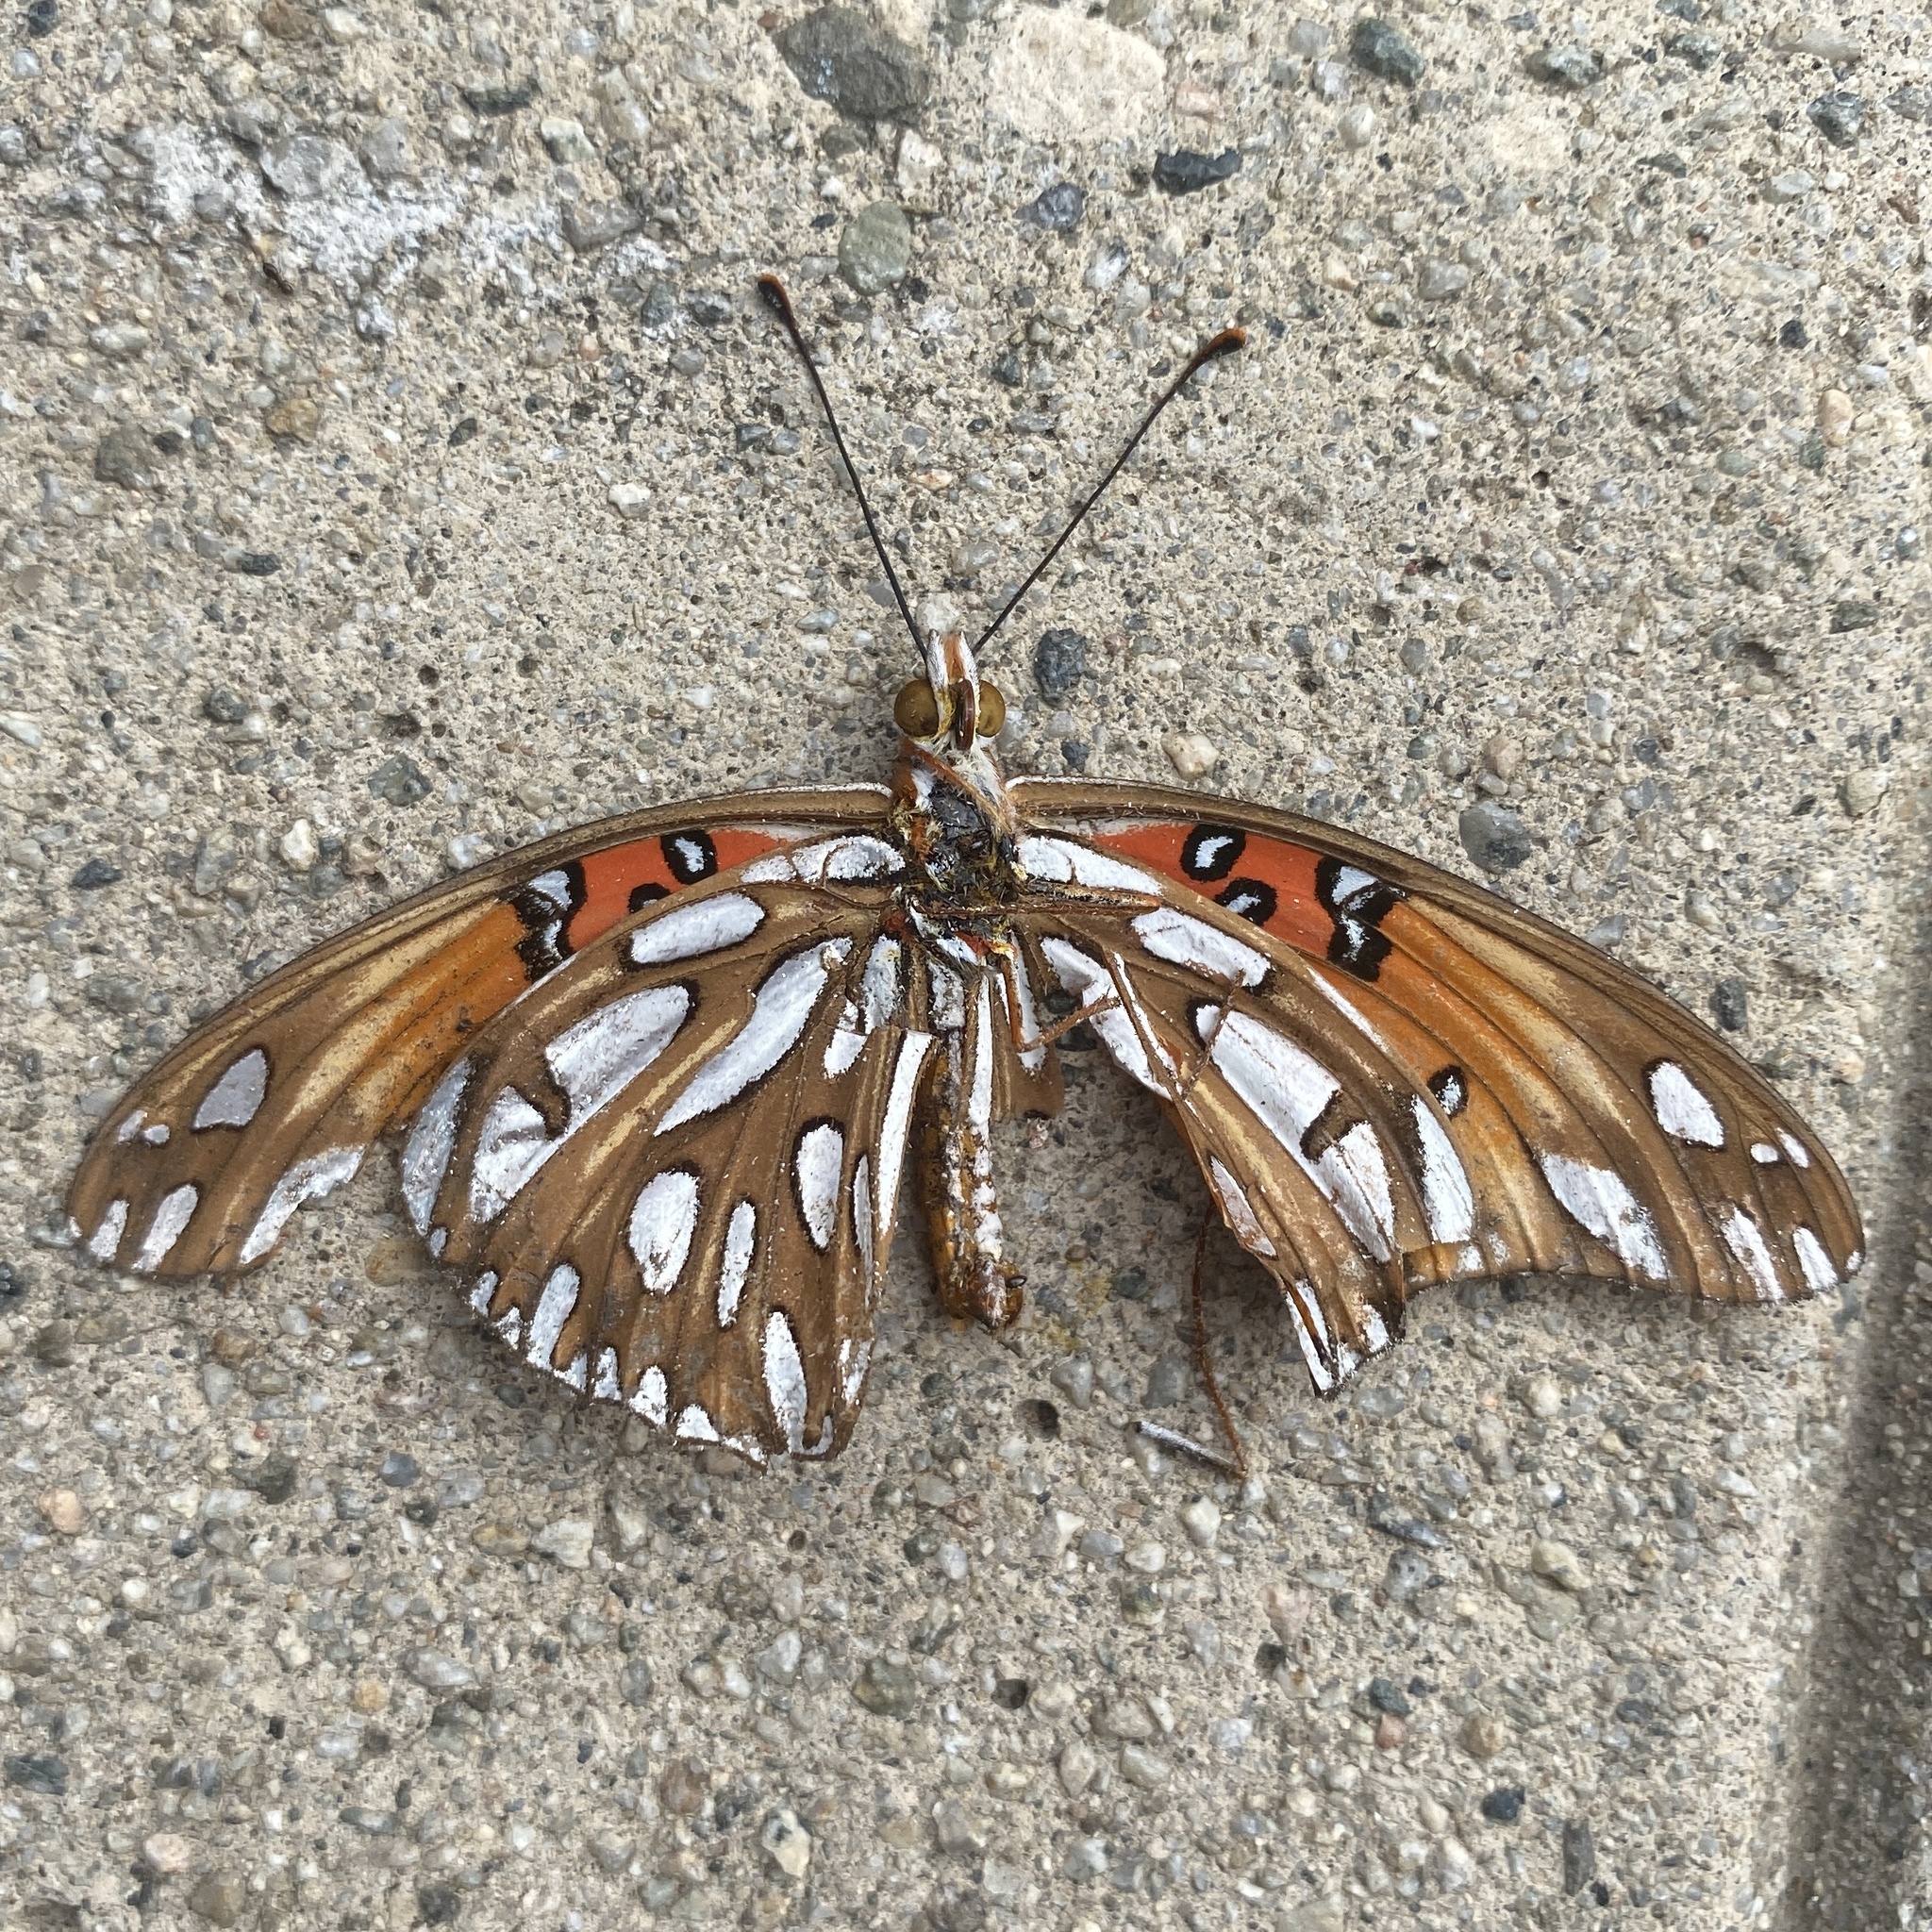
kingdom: Animalia
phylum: Arthropoda
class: Insecta
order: Lepidoptera
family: Nymphalidae
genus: Dione
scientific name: Dione vanillae
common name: Gulf fritillary
